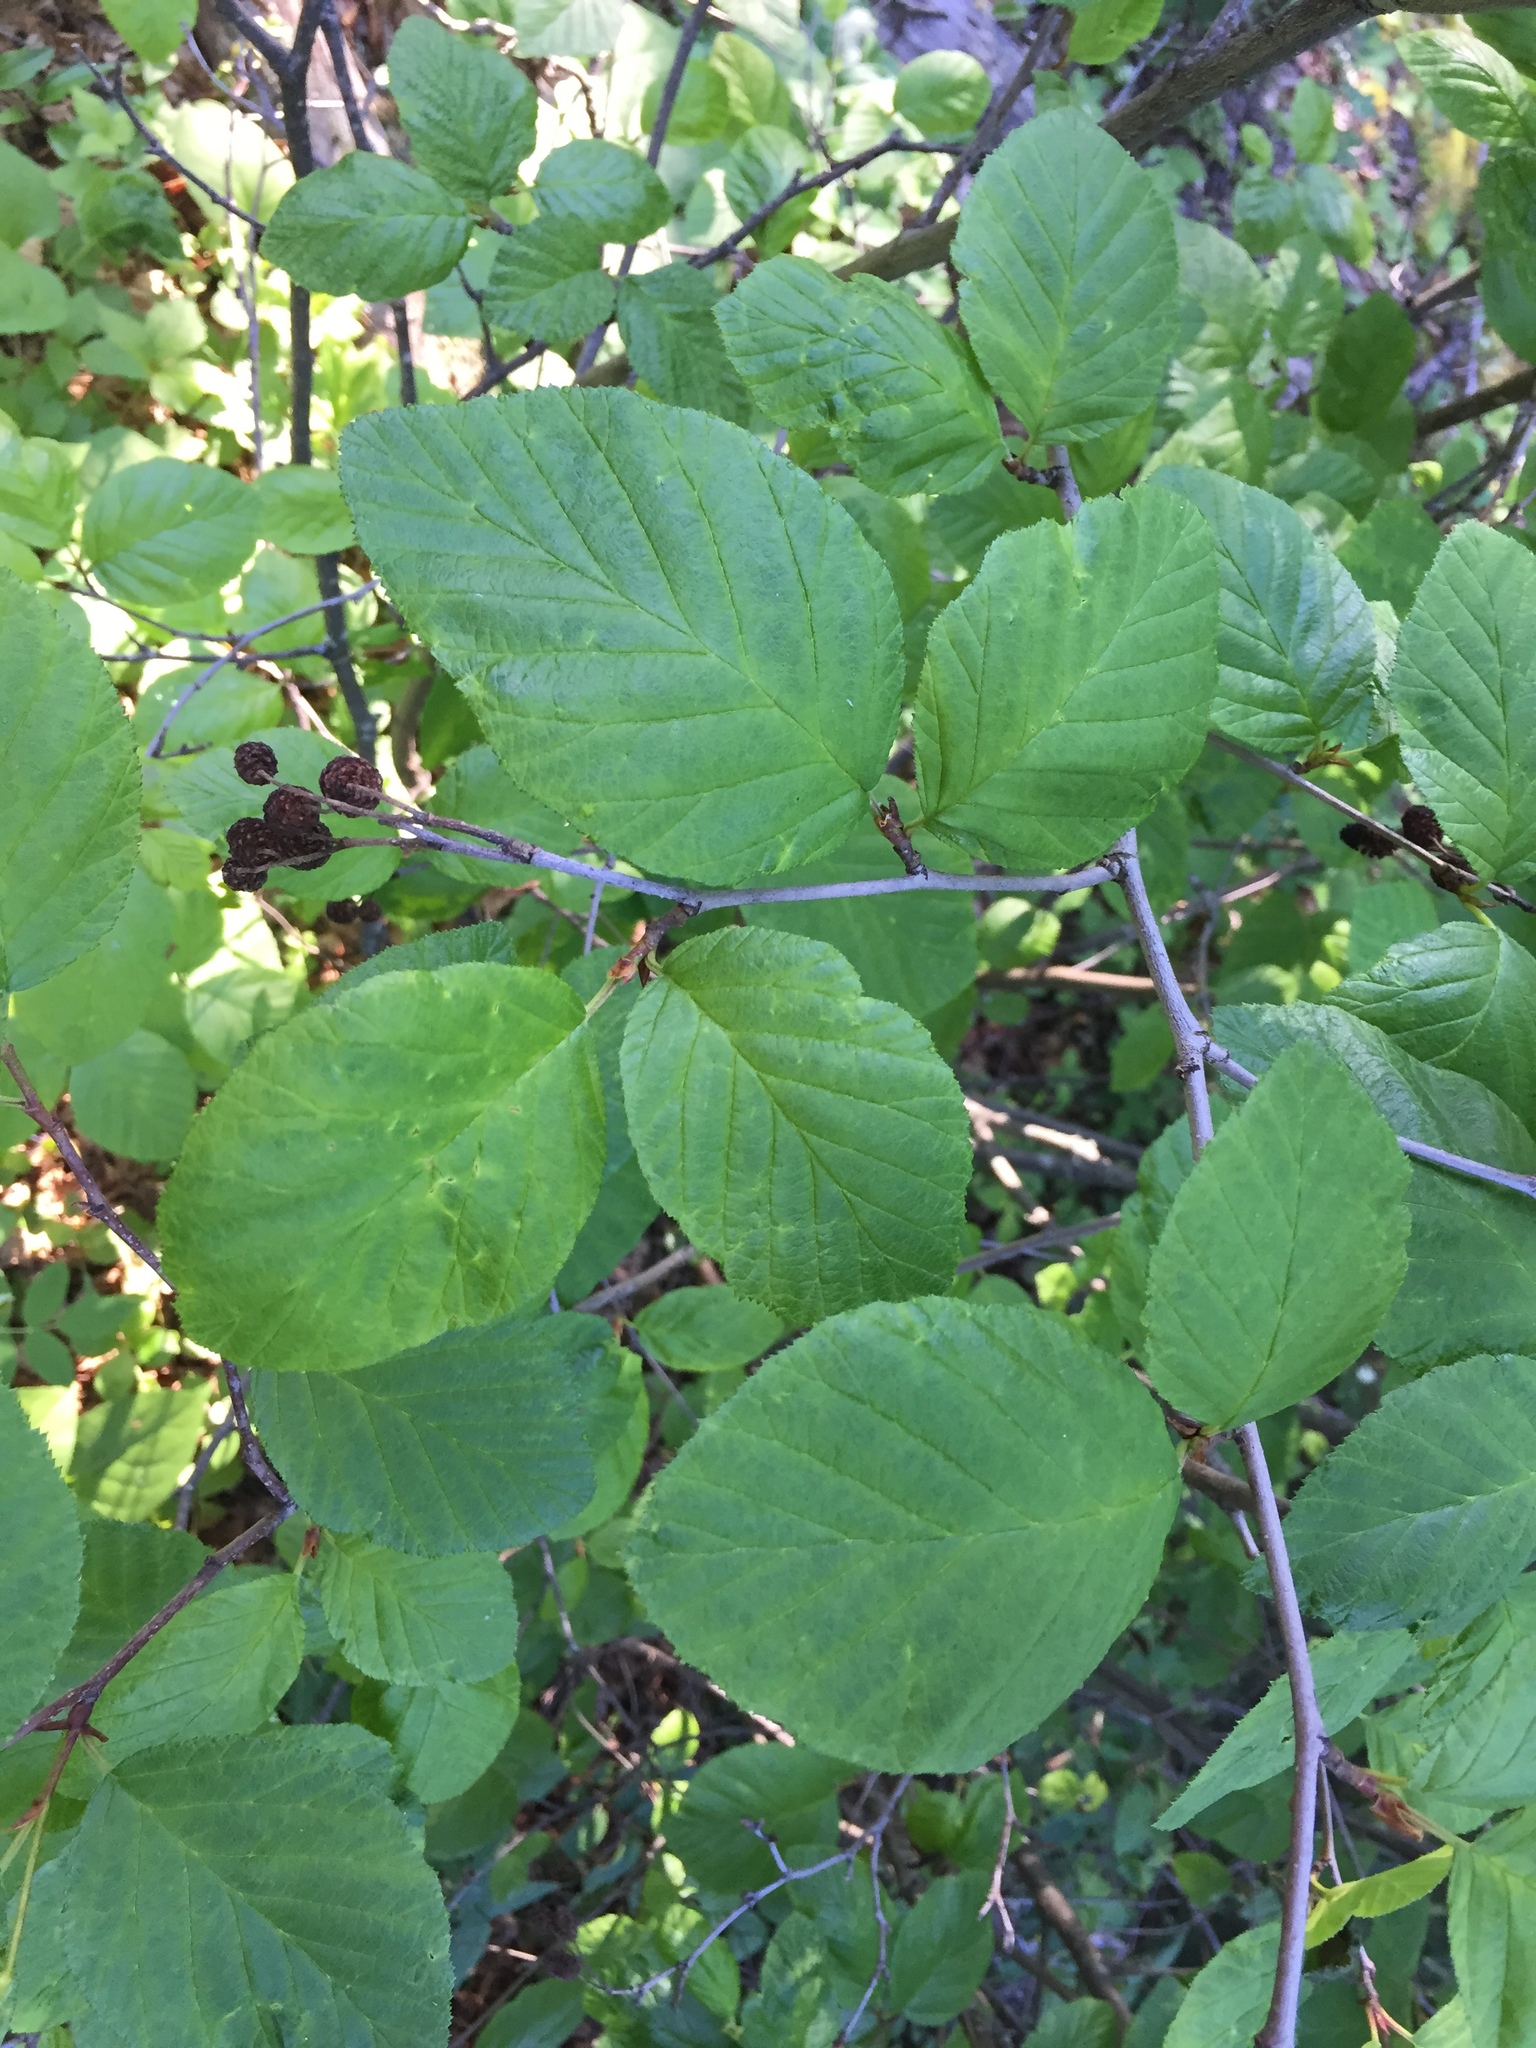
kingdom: Plantae
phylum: Tracheophyta
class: Magnoliopsida
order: Fagales
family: Betulaceae
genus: Alnus
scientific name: Alnus alnobetula
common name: Green alder
